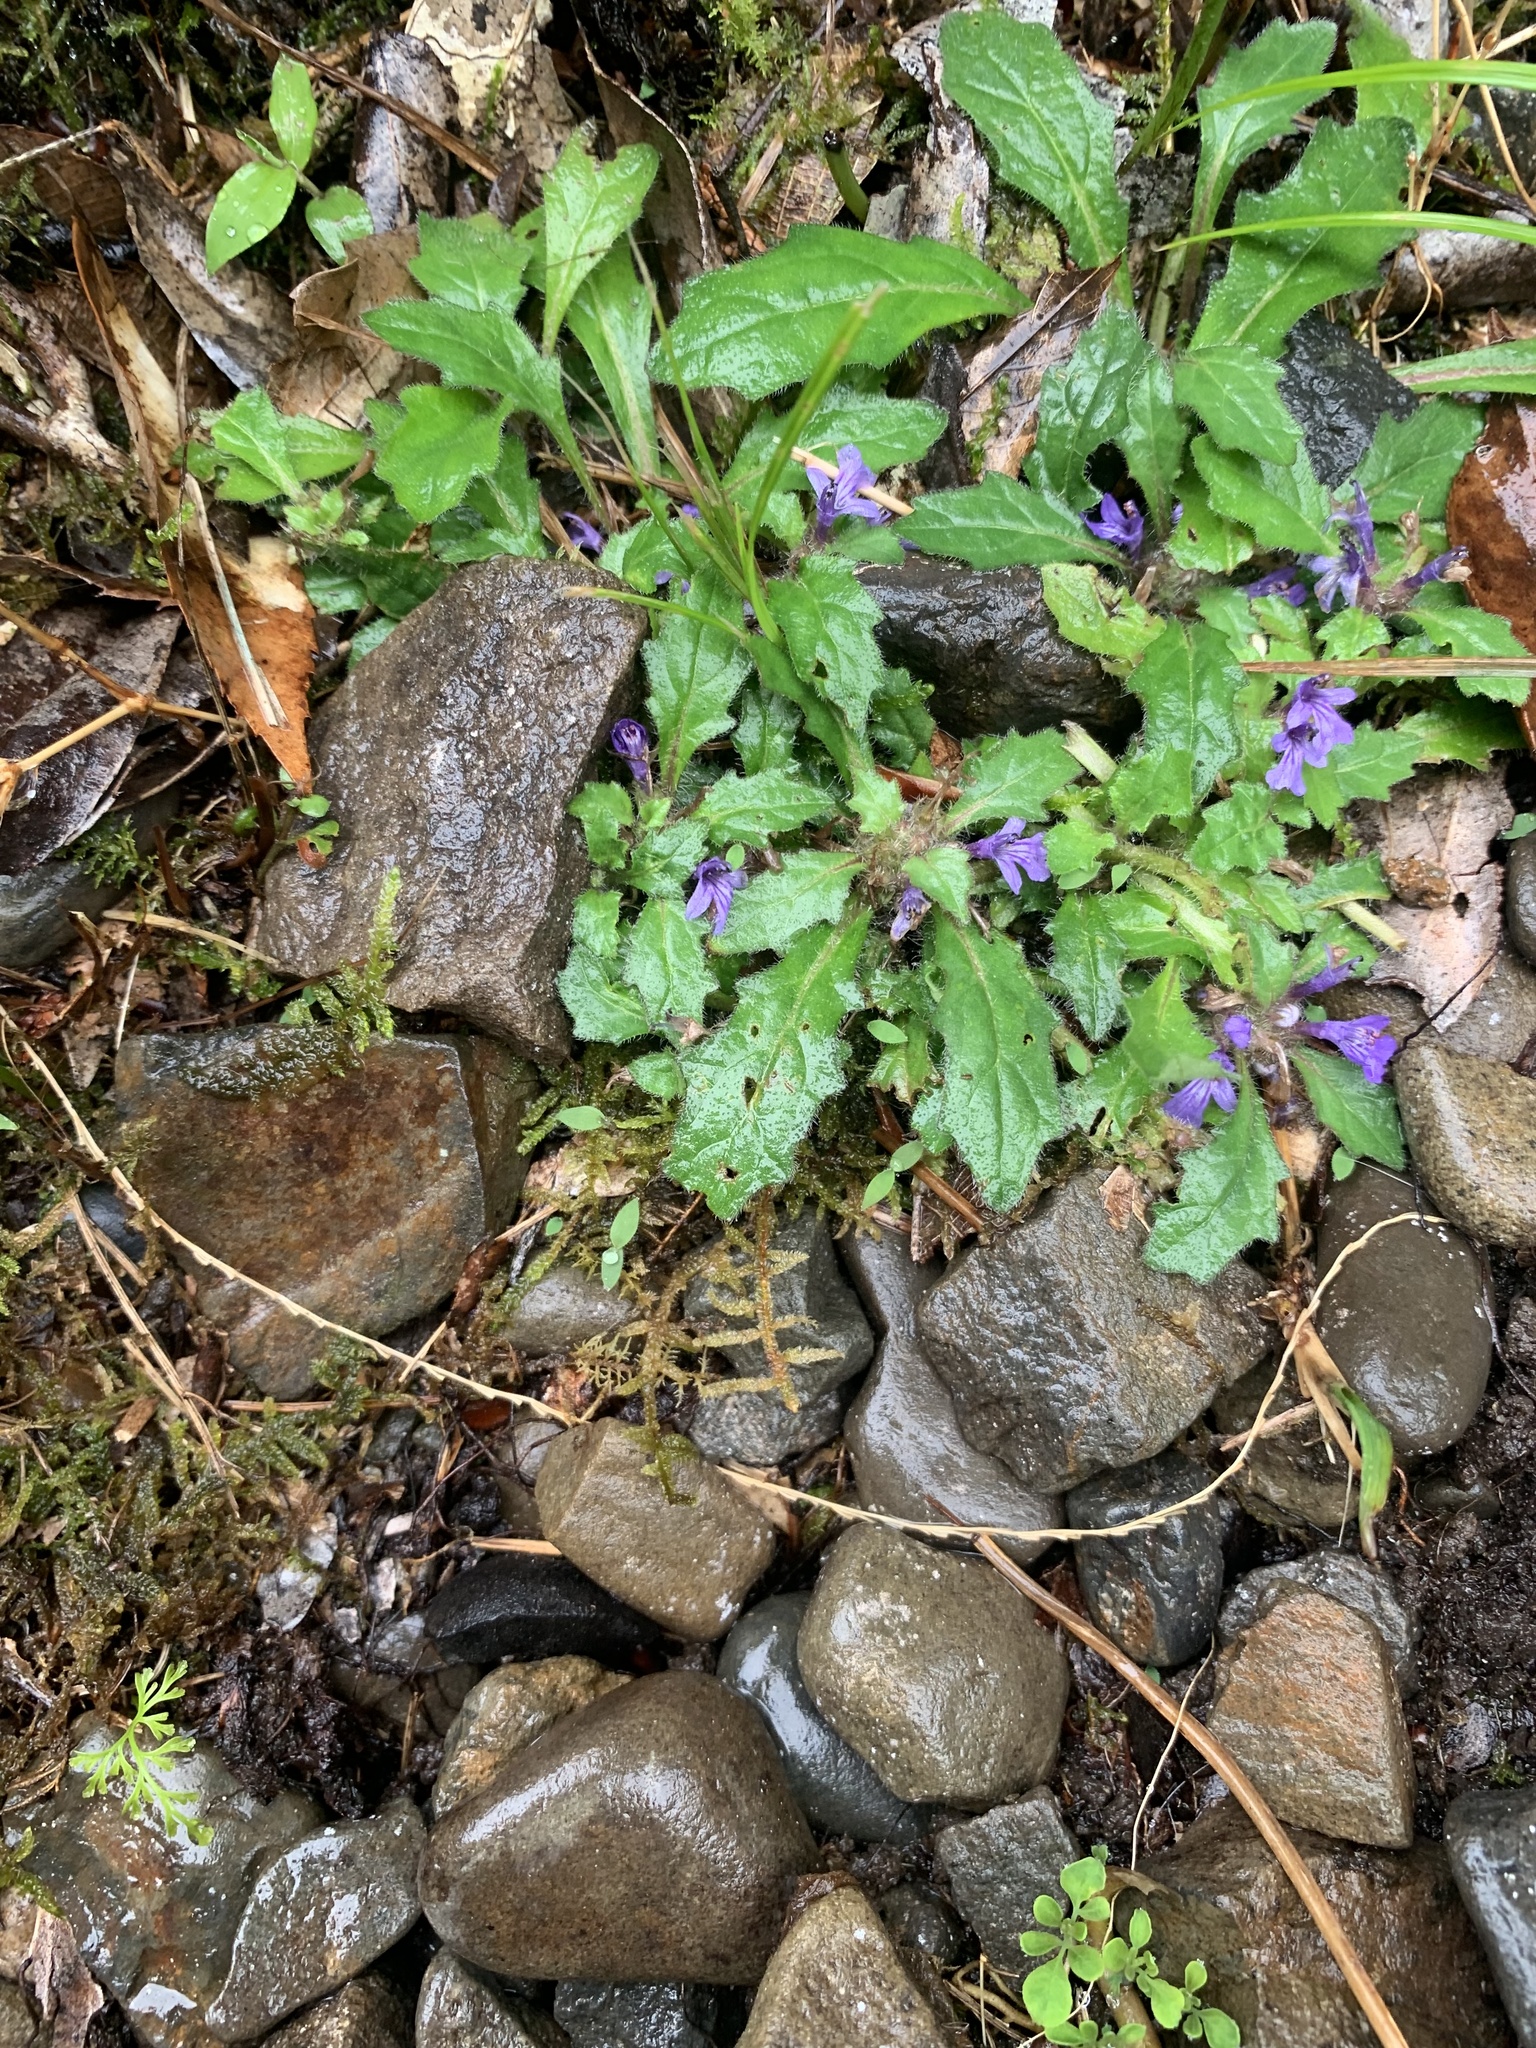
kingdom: Plantae
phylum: Tracheophyta
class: Magnoliopsida
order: Lamiales
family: Lamiaceae
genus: Ajuga
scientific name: Ajuga decumbens
